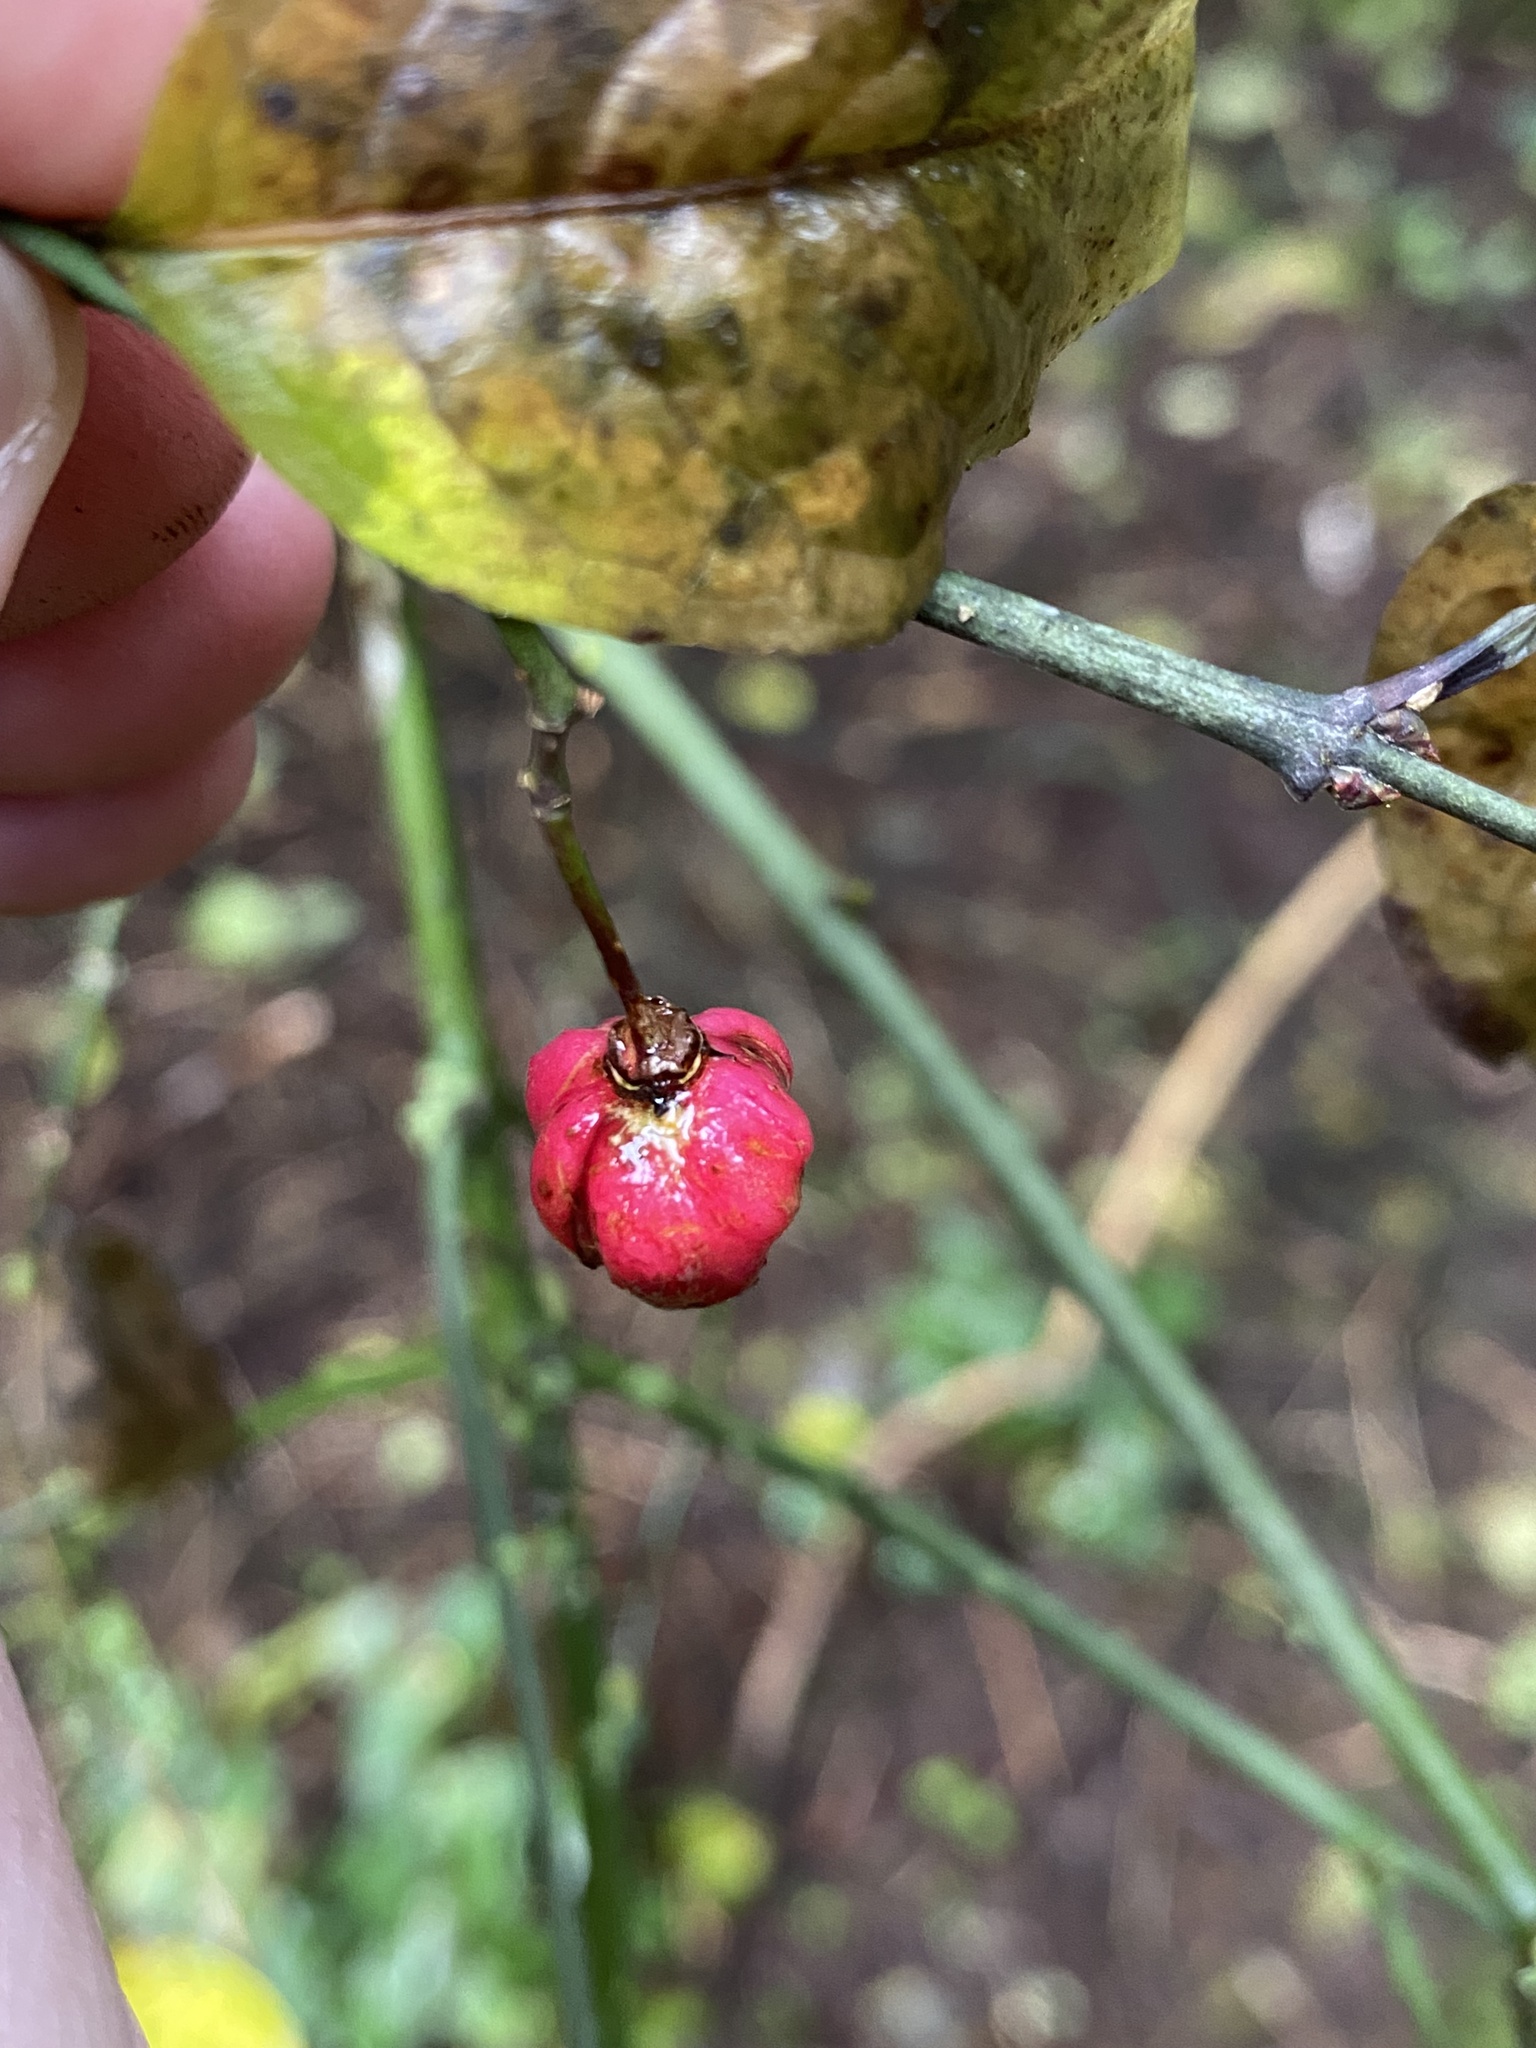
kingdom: Plantae
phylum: Tracheophyta
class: Magnoliopsida
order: Celastrales
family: Celastraceae
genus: Euonymus
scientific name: Euonymus europaeus
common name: Spindle
